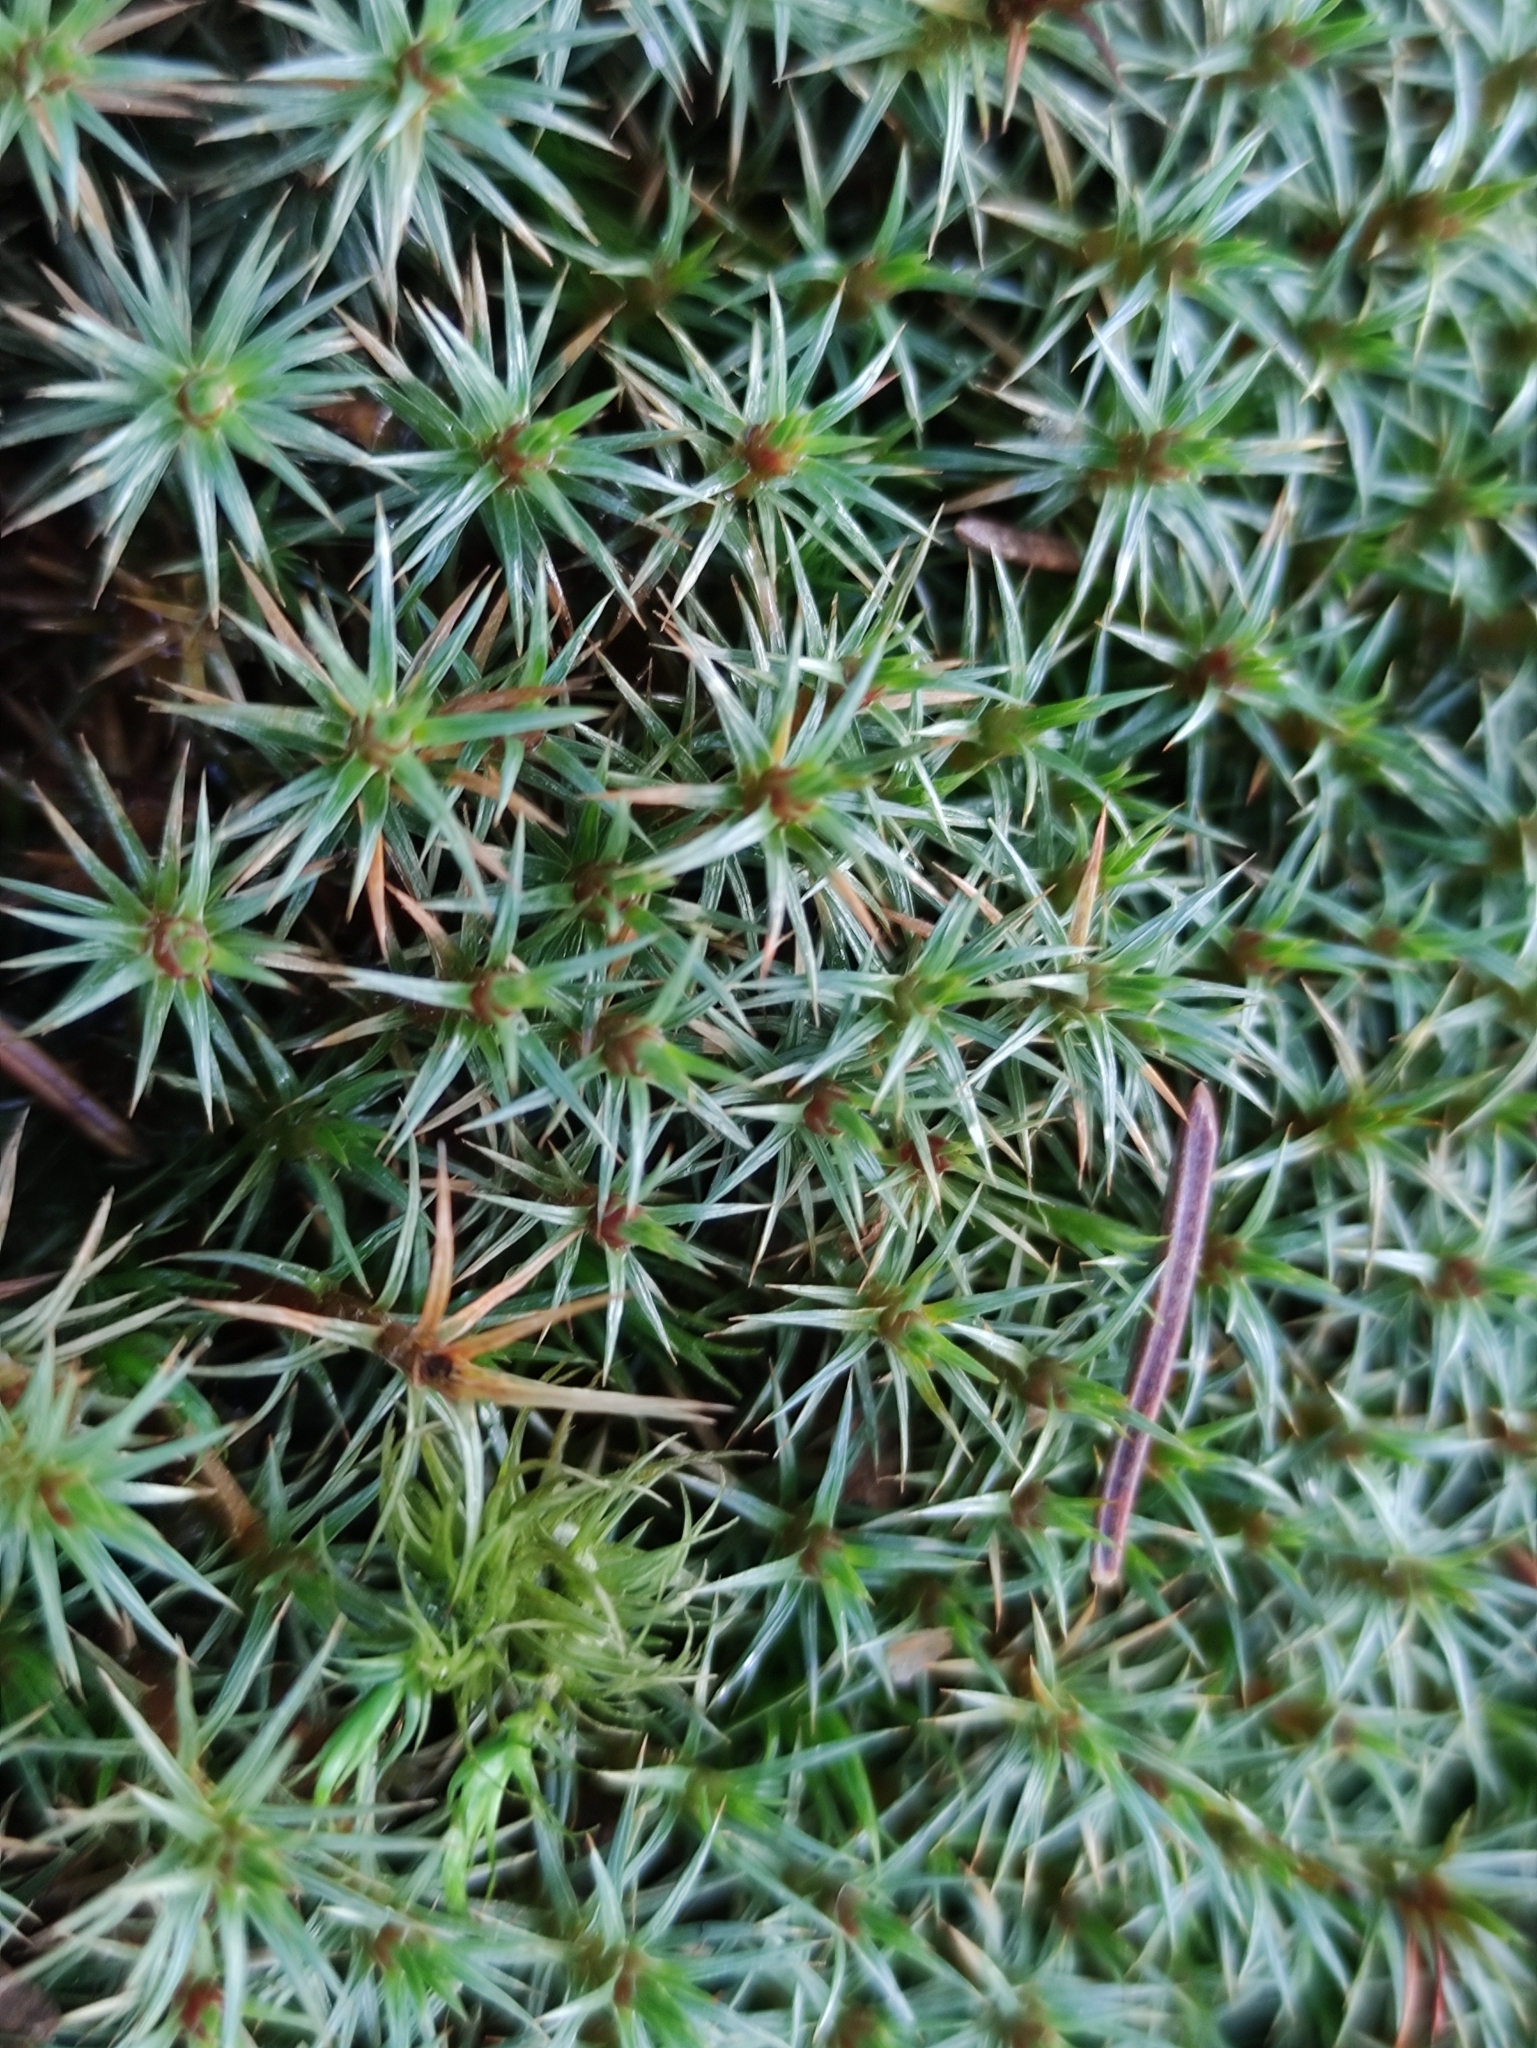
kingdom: Plantae
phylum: Bryophyta
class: Polytrichopsida
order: Polytrichales
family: Polytrichaceae
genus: Polytrichum
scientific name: Polytrichum juniperinum
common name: Juniper haircap moss
